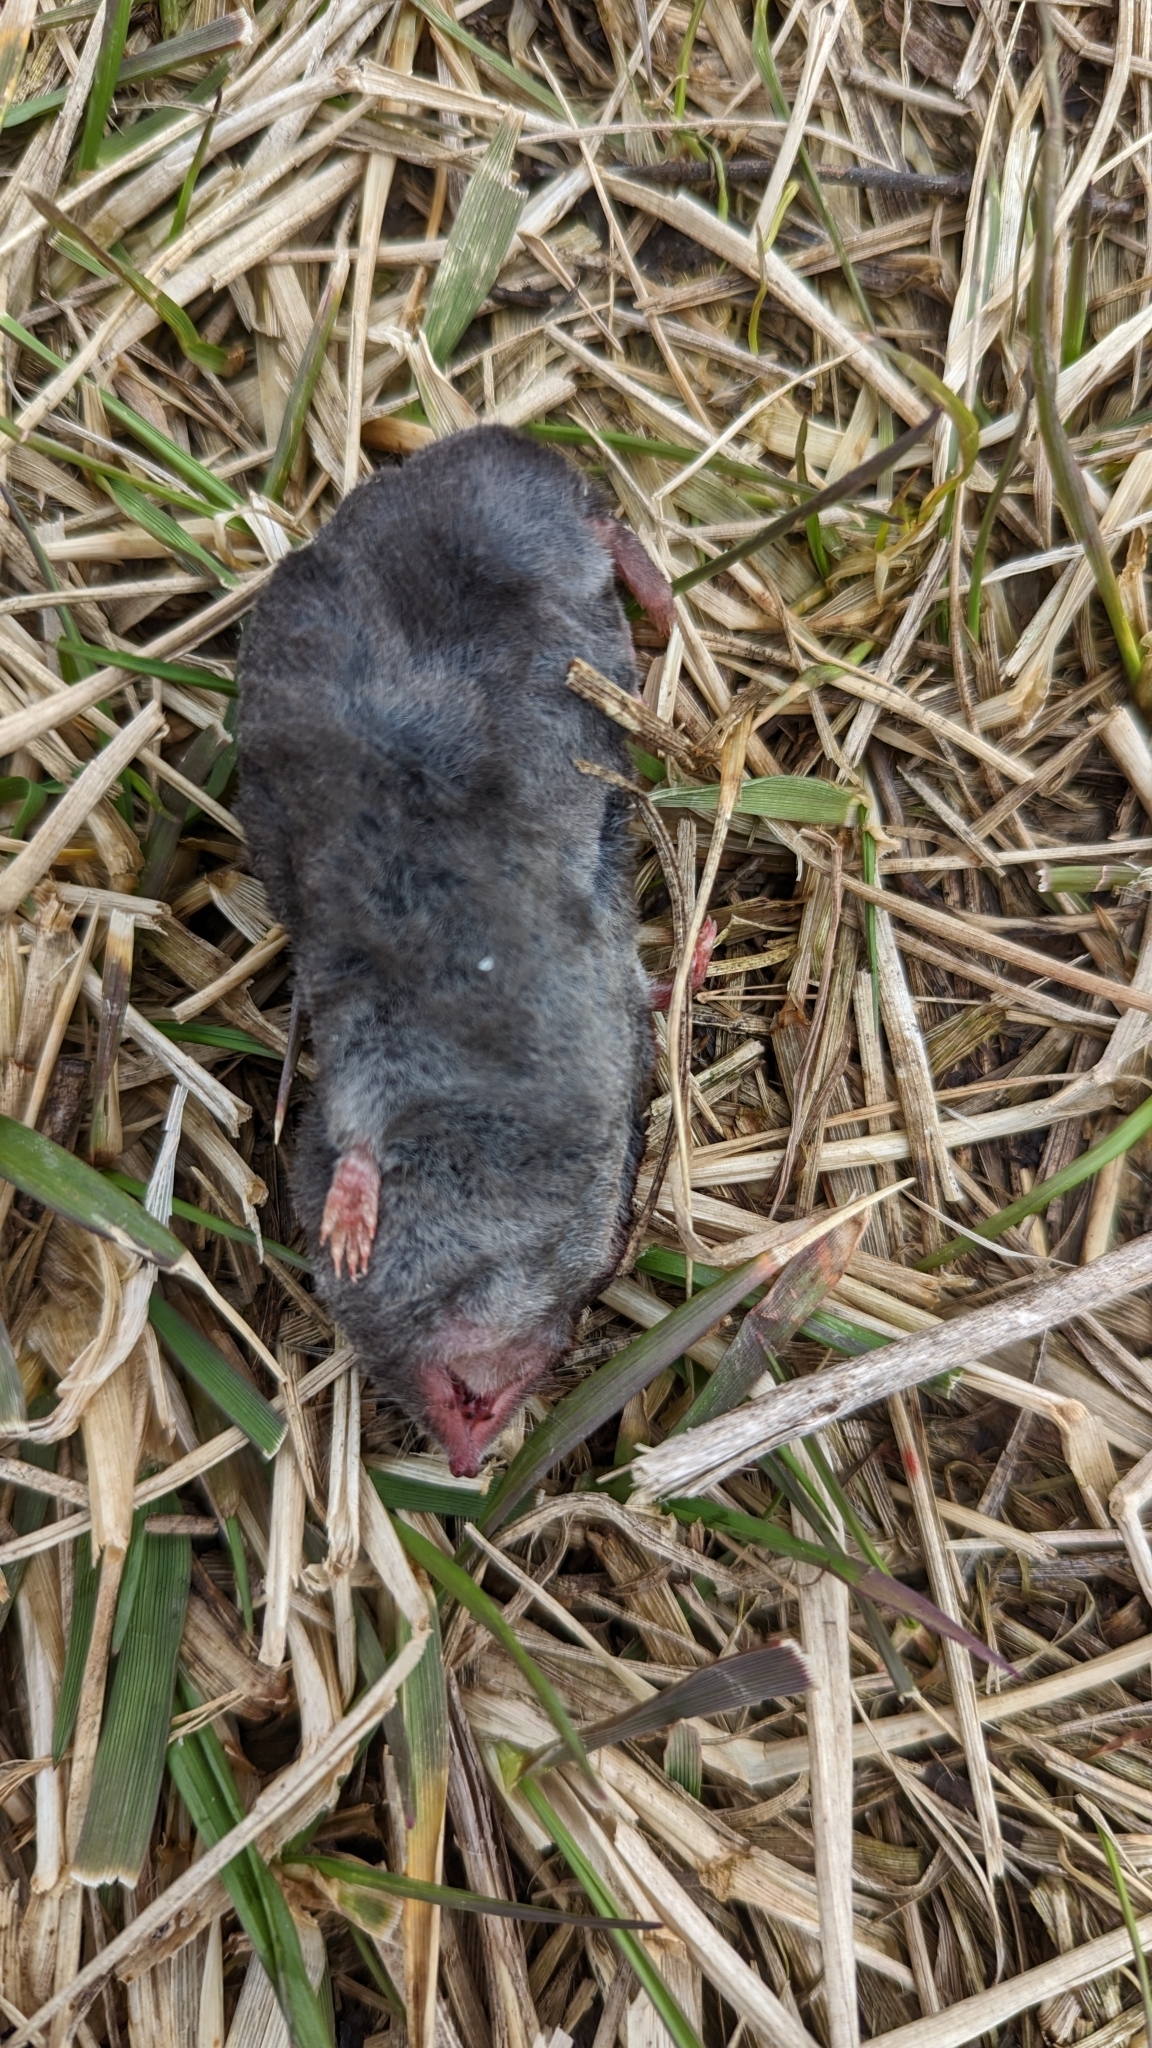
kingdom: Animalia
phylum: Chordata
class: Mammalia
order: Soricomorpha
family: Soricidae
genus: Blarina
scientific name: Blarina brevicauda
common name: Northern short-tailed shrew
